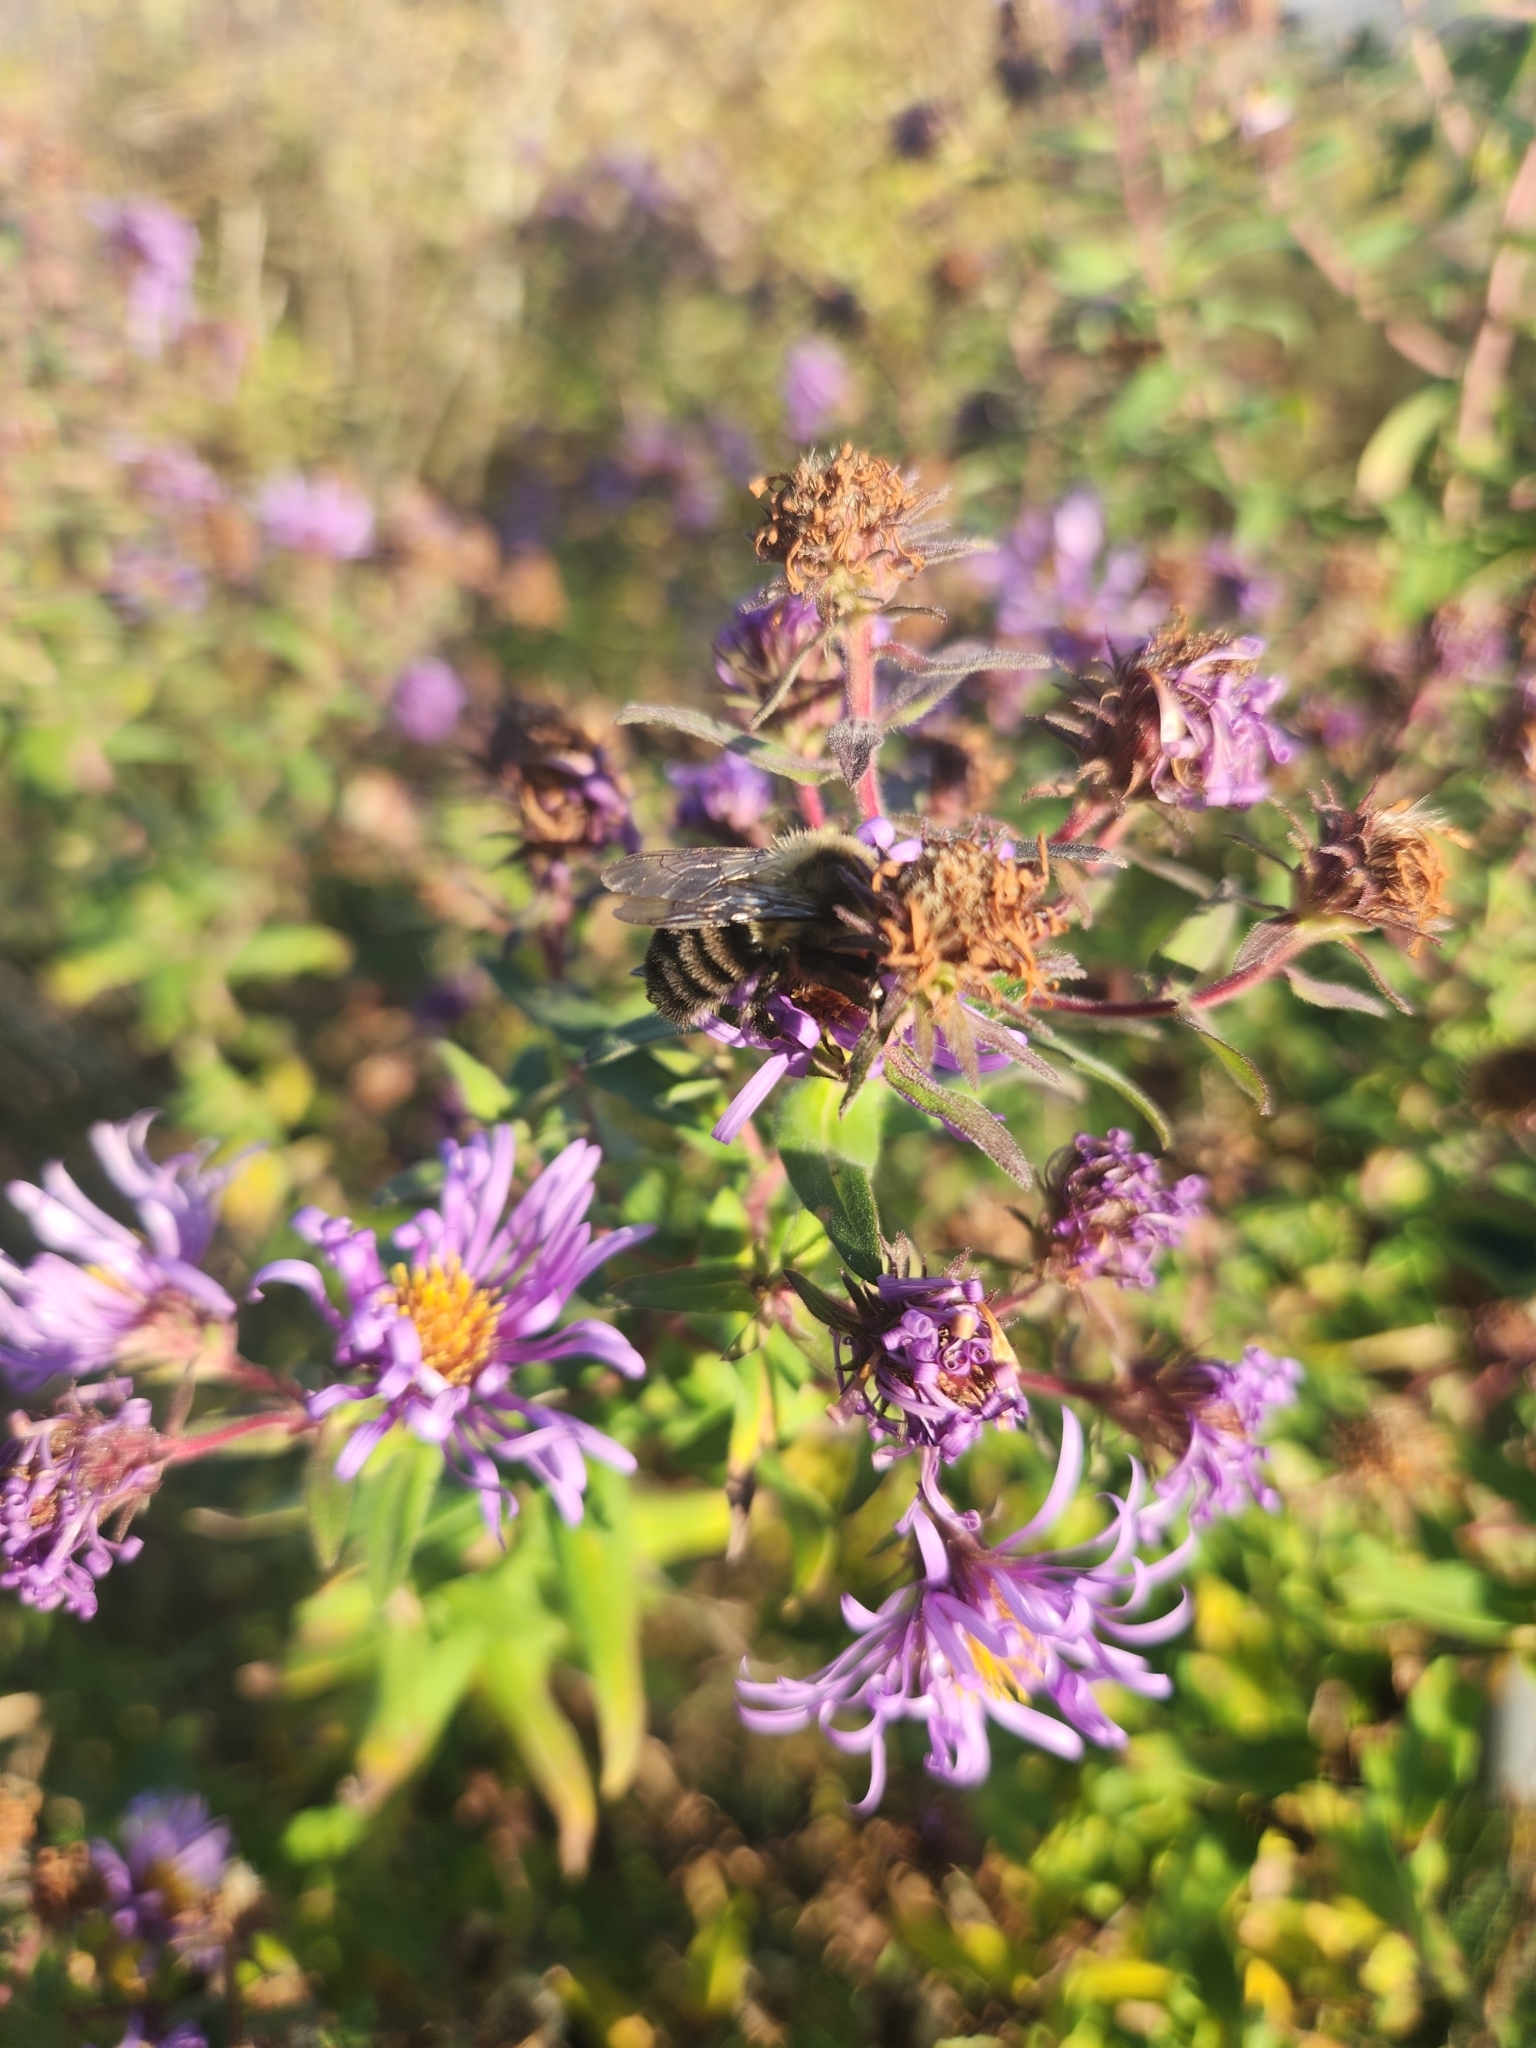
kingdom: Animalia
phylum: Arthropoda
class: Insecta
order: Hymenoptera
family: Apidae
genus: Bombus
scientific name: Bombus impatiens
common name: Common eastern bumble bee
